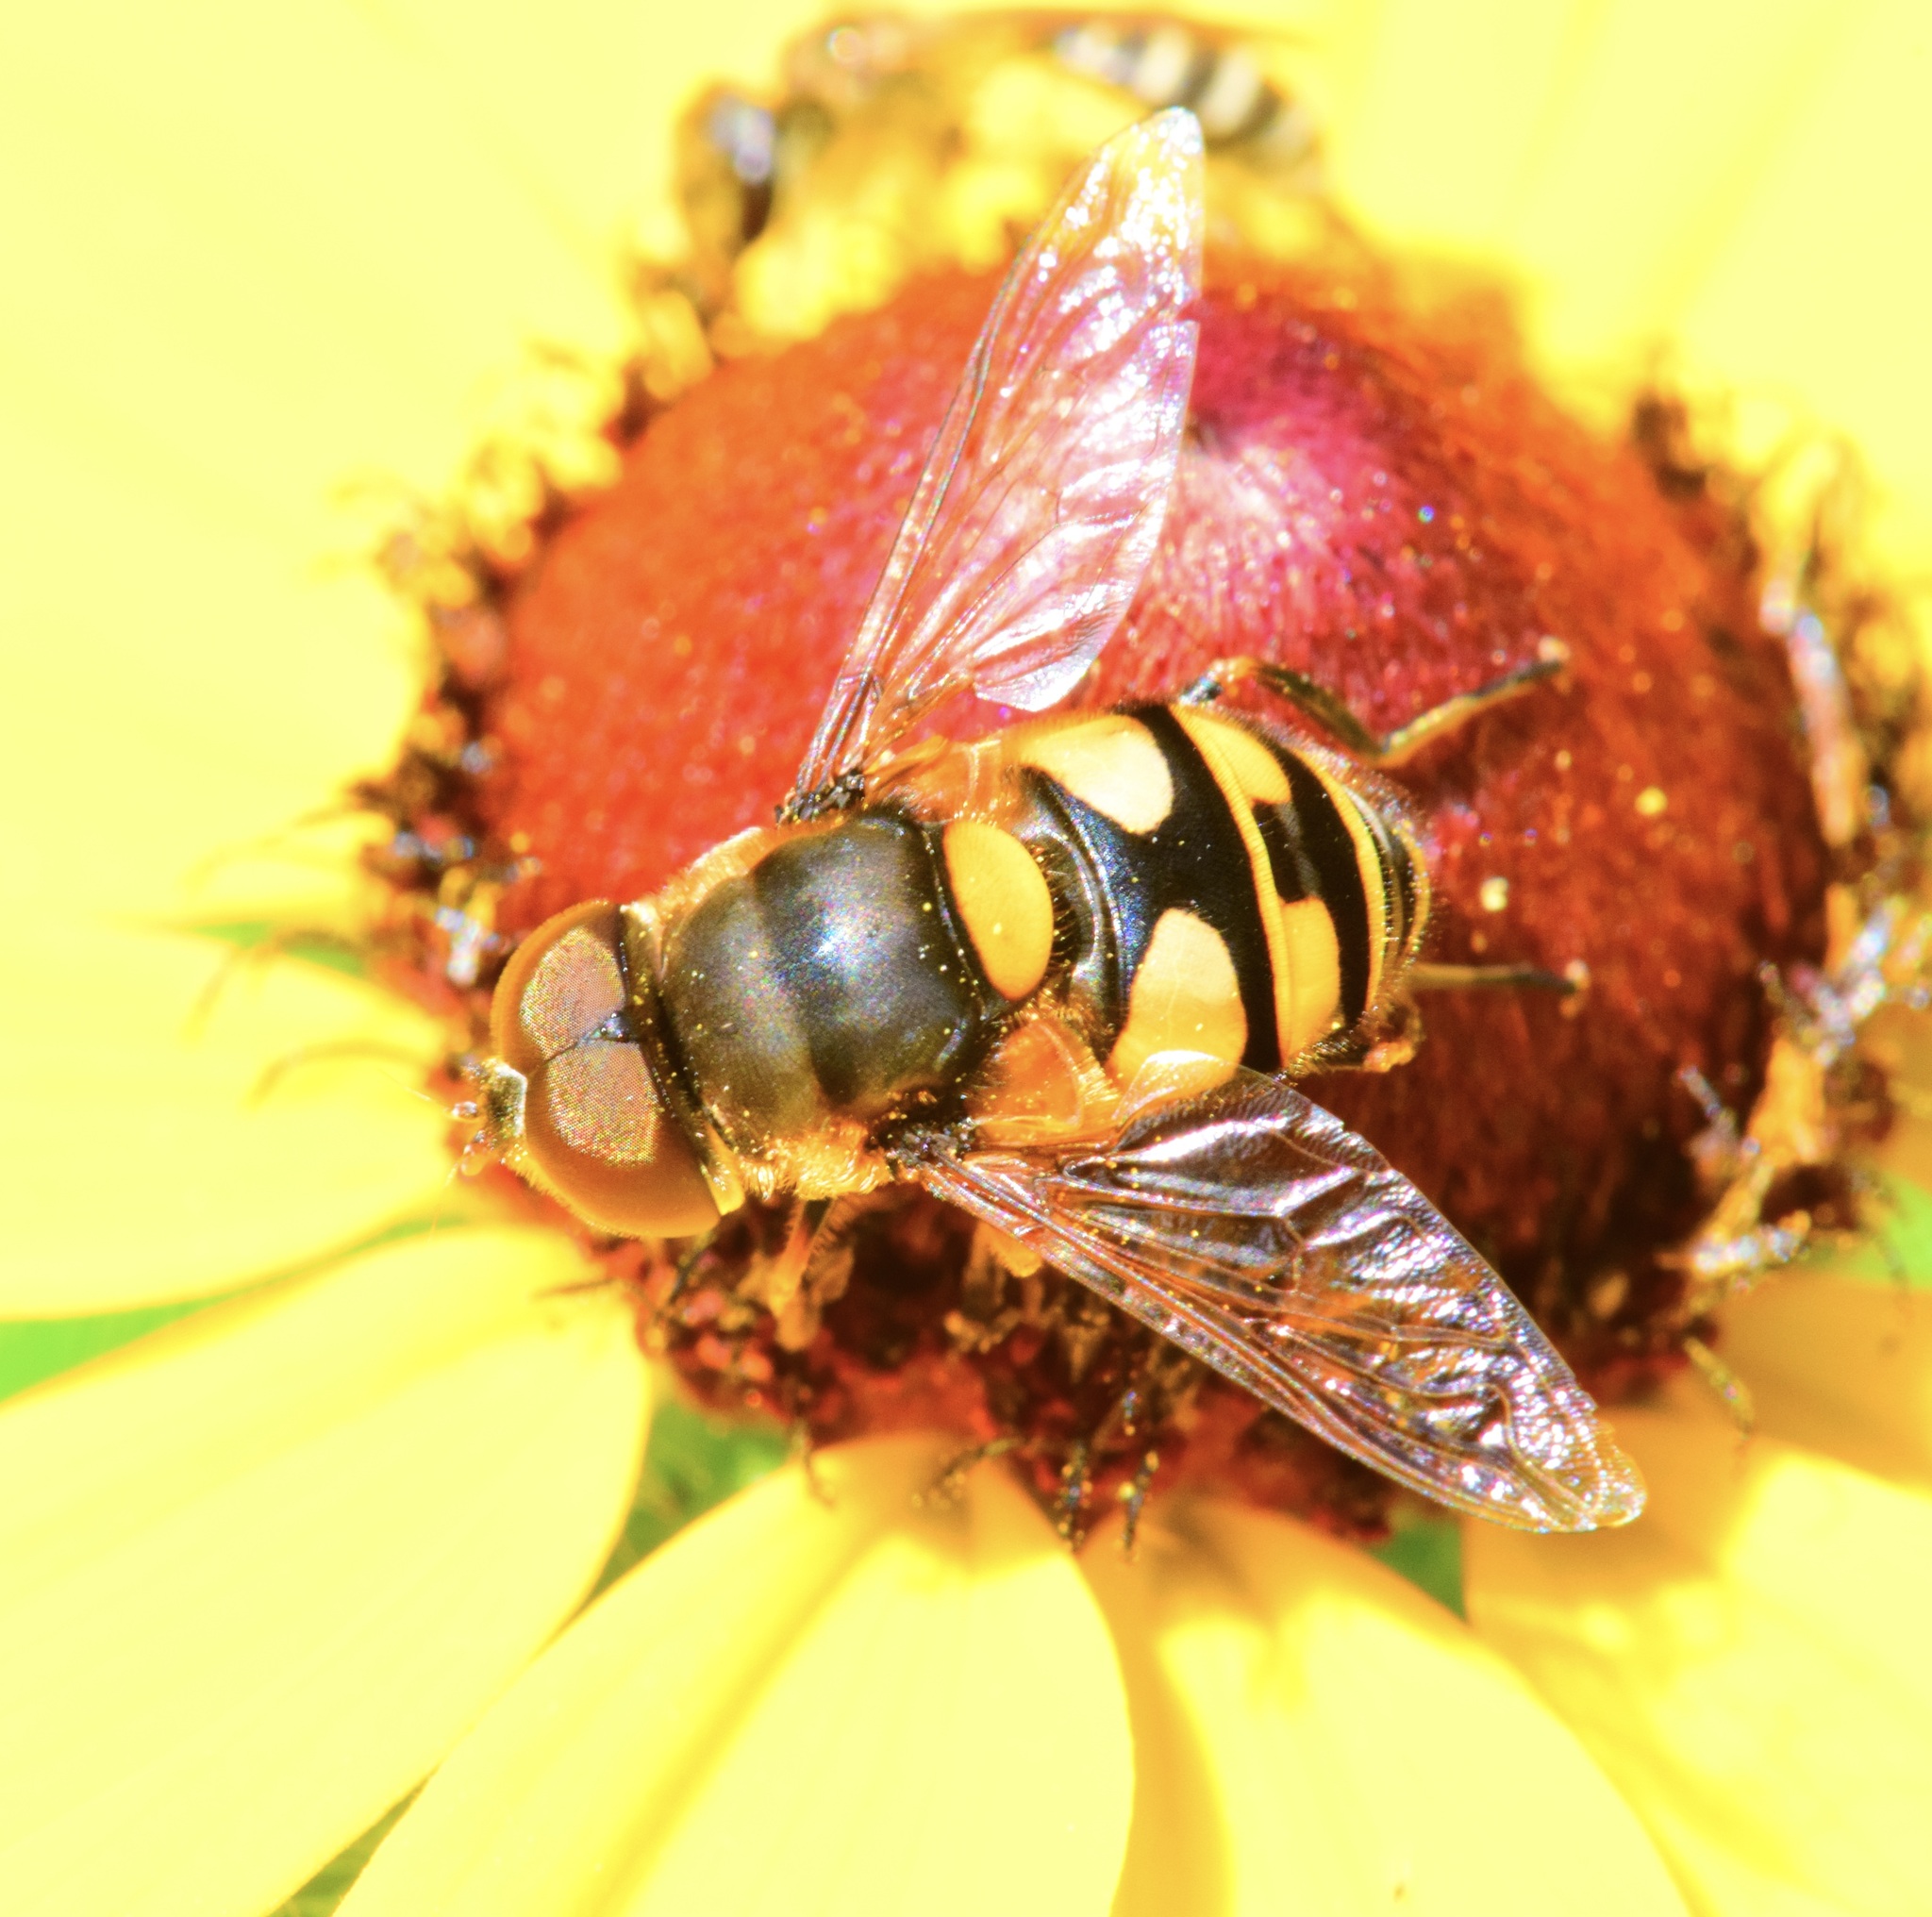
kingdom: Animalia
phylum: Arthropoda
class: Insecta
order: Diptera
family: Syrphidae
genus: Eristalis
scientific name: Eristalis transversa
